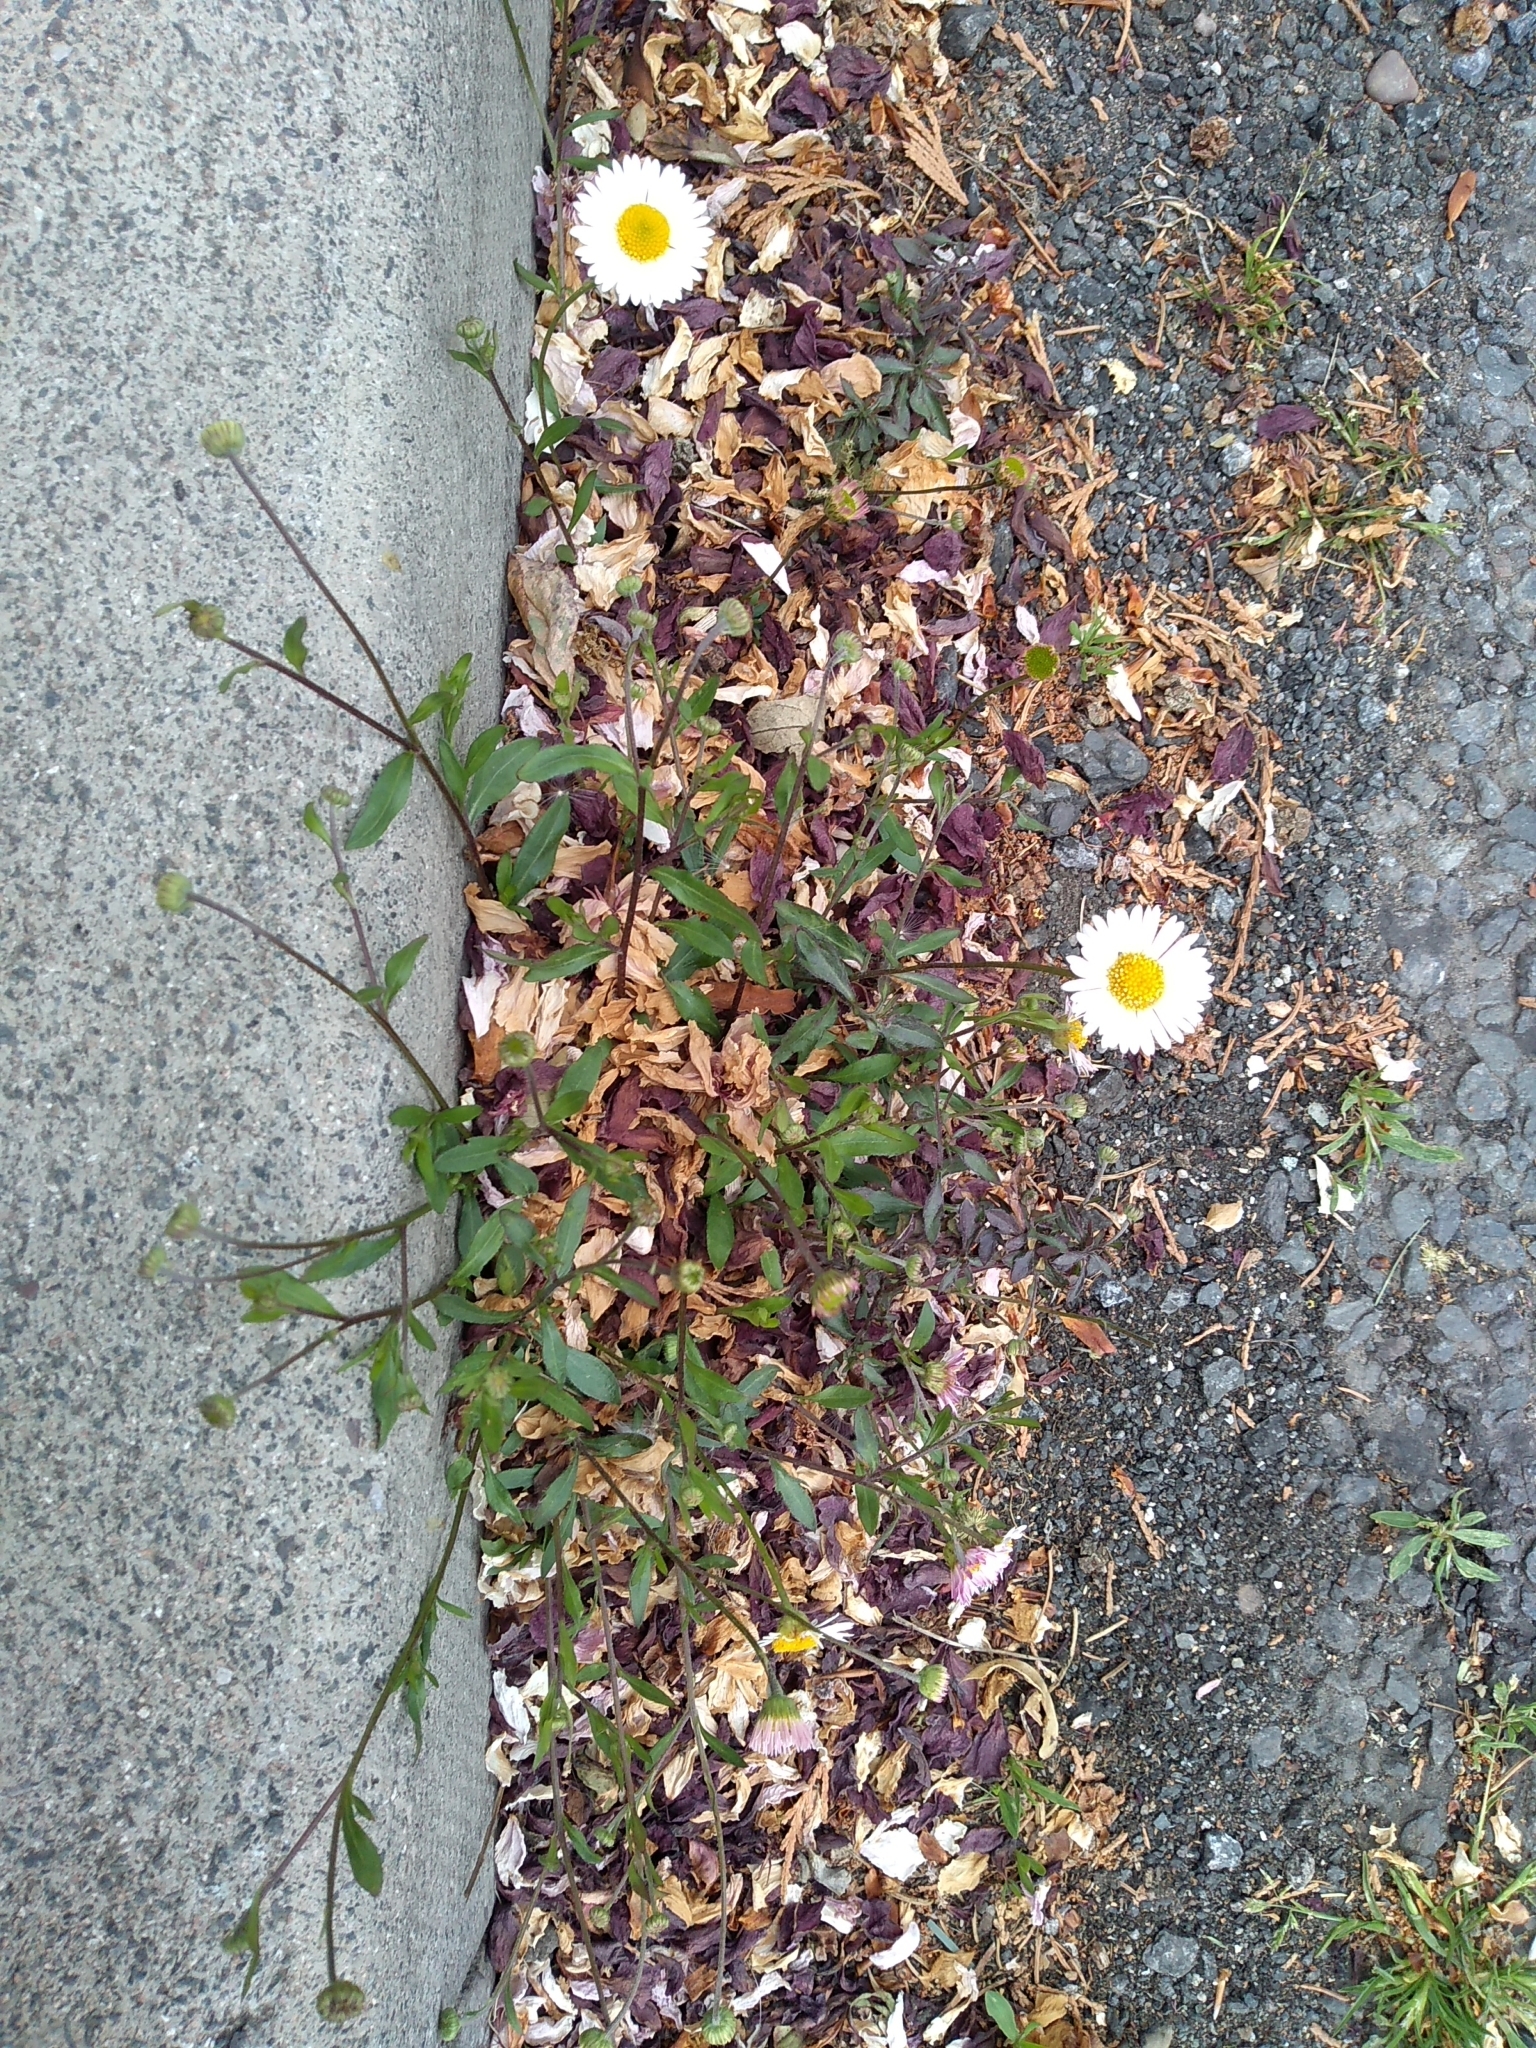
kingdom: Plantae
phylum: Tracheophyta
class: Magnoliopsida
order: Asterales
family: Asteraceae
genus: Erigeron
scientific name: Erigeron karvinskianus
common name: Mexican fleabane
